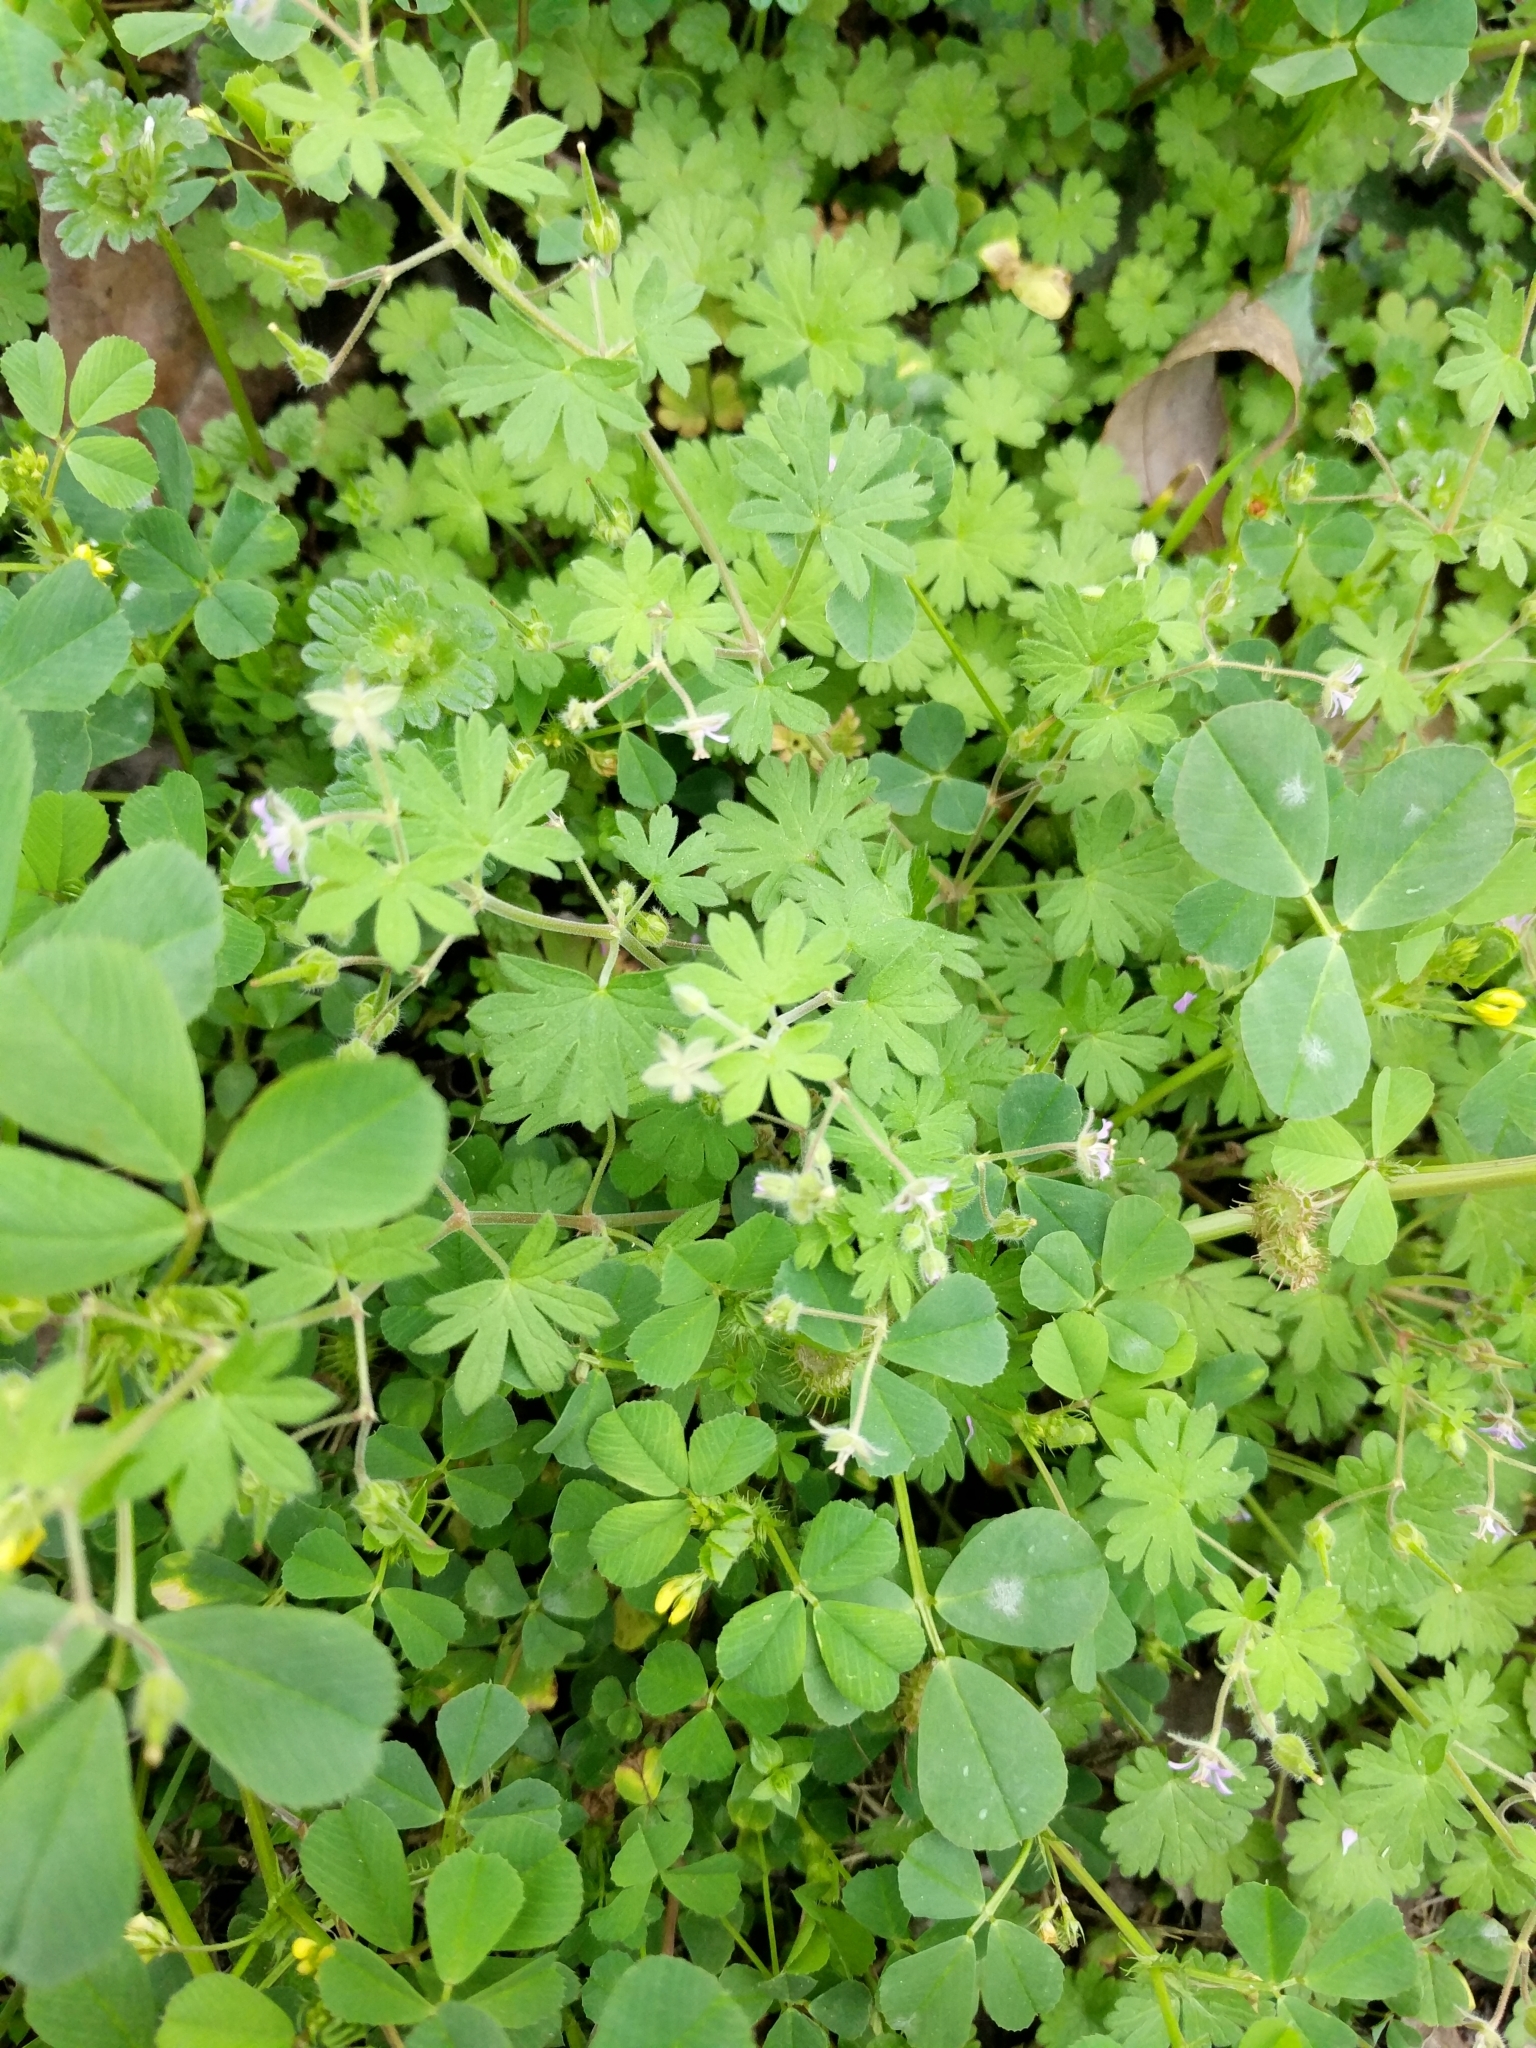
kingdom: Plantae
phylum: Tracheophyta
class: Magnoliopsida
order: Geraniales
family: Geraniaceae
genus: Geranium
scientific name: Geranium pusillum
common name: Small geranium
